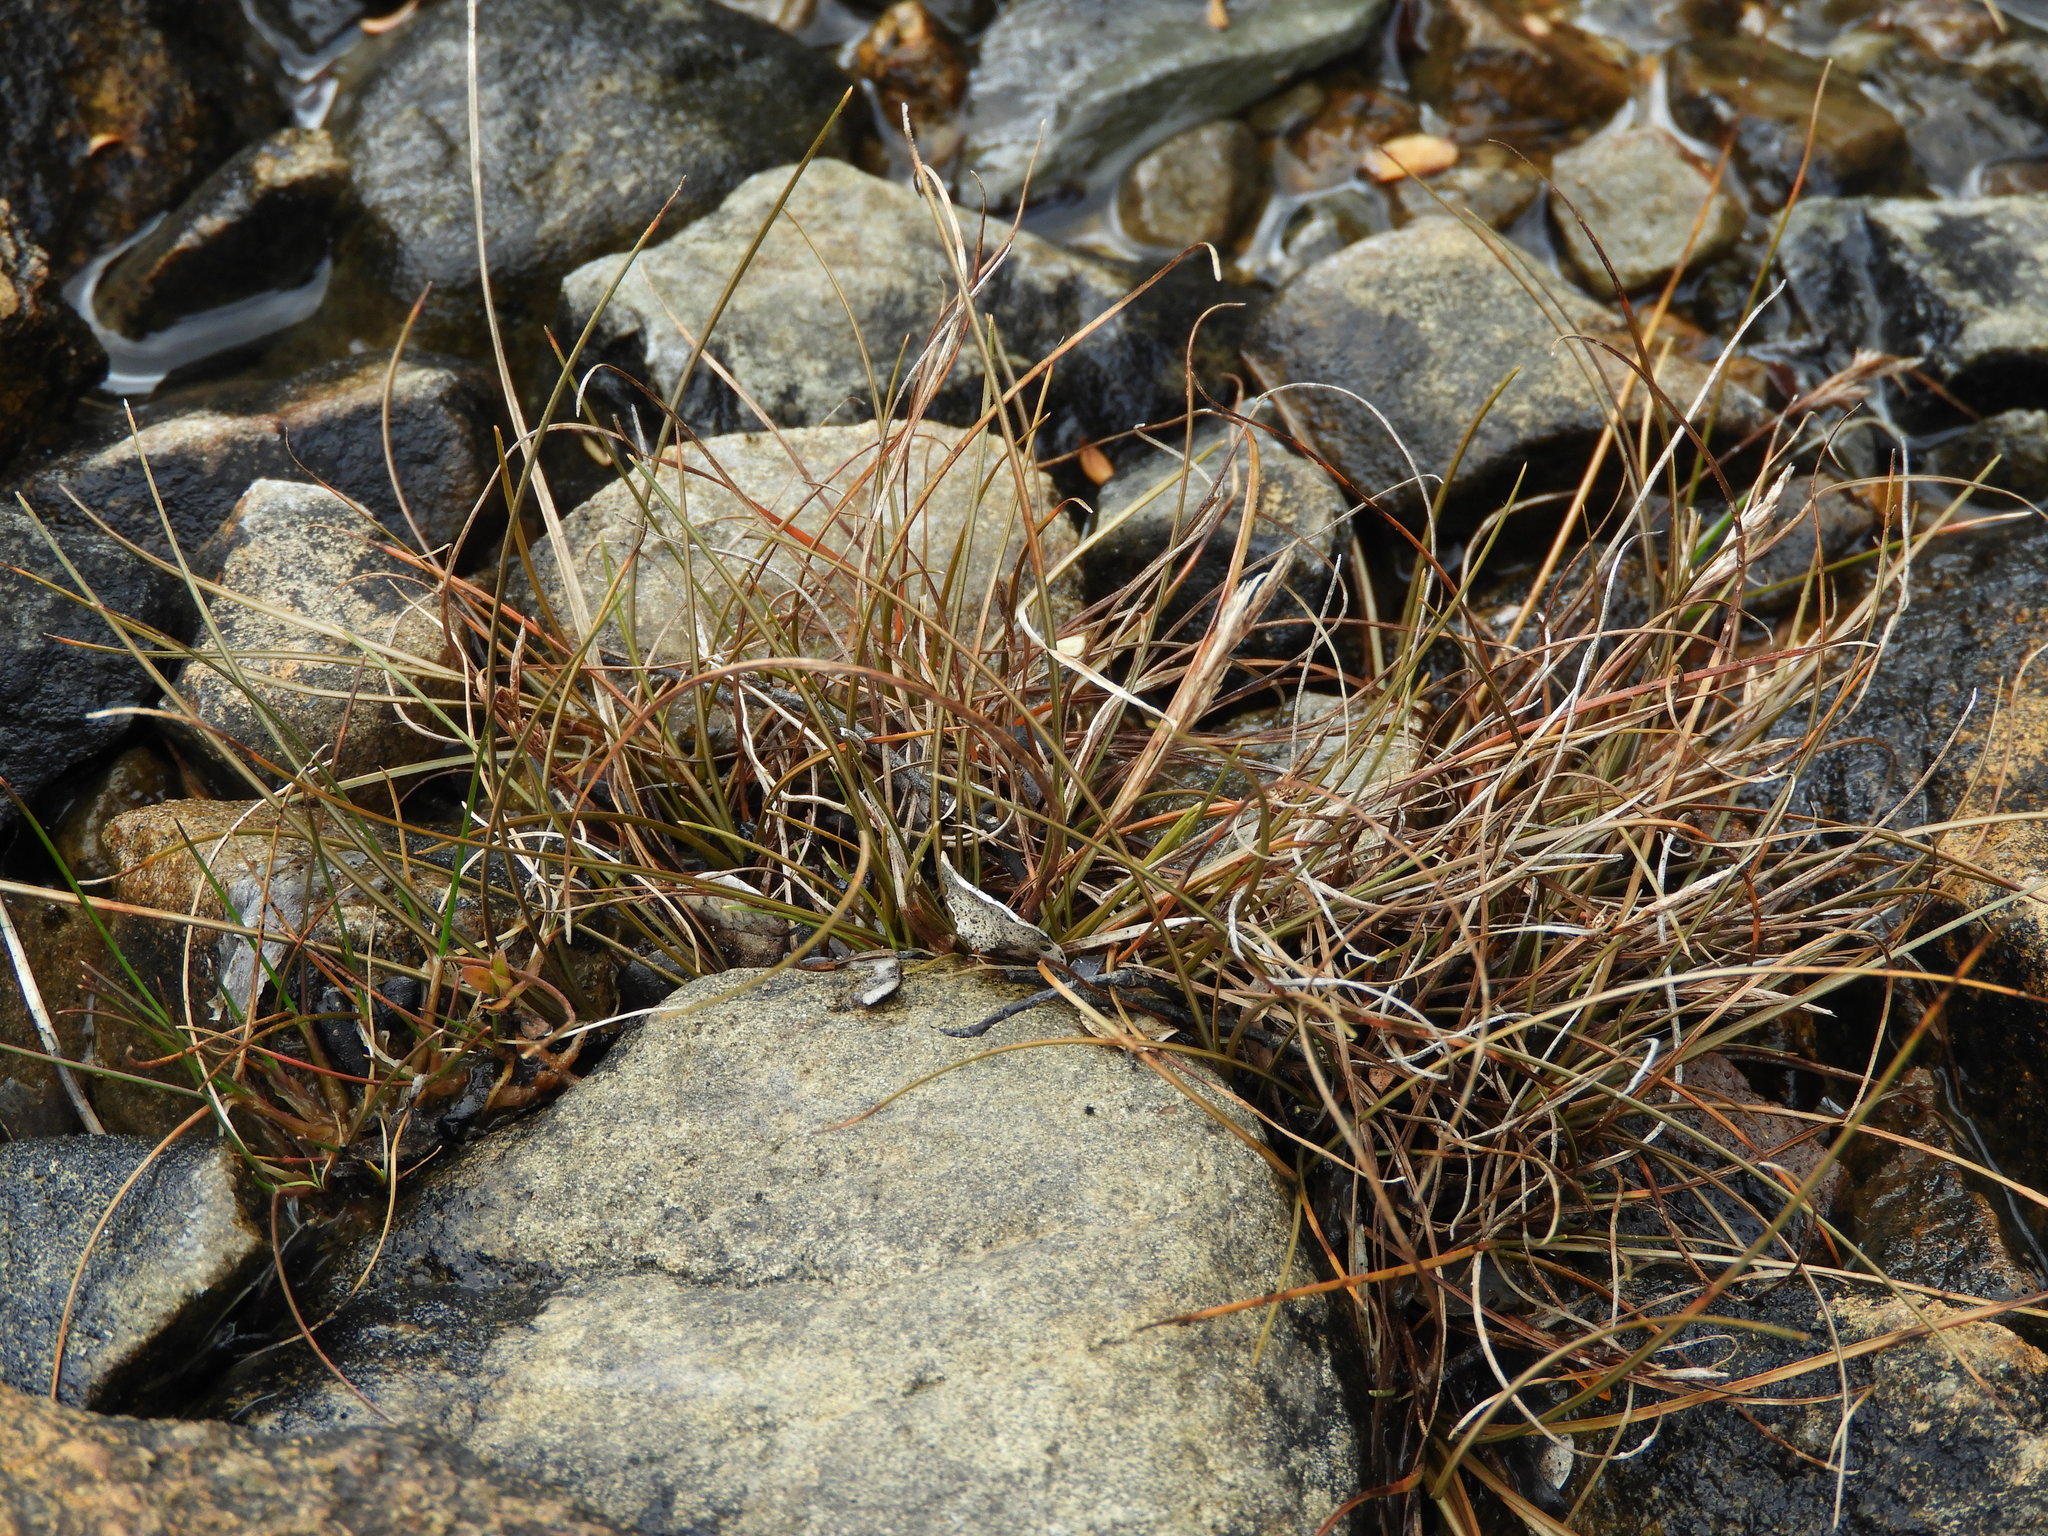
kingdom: Plantae
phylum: Tracheophyta
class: Liliopsida
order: Poales
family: Cyperaceae
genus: Carex
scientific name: Carex traversii
